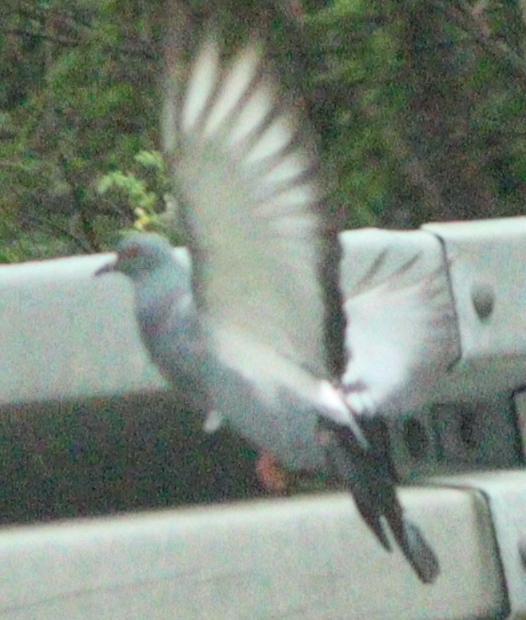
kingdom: Animalia
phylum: Chordata
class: Aves
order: Columbiformes
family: Columbidae
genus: Columba
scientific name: Columba livia
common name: Rock pigeon
